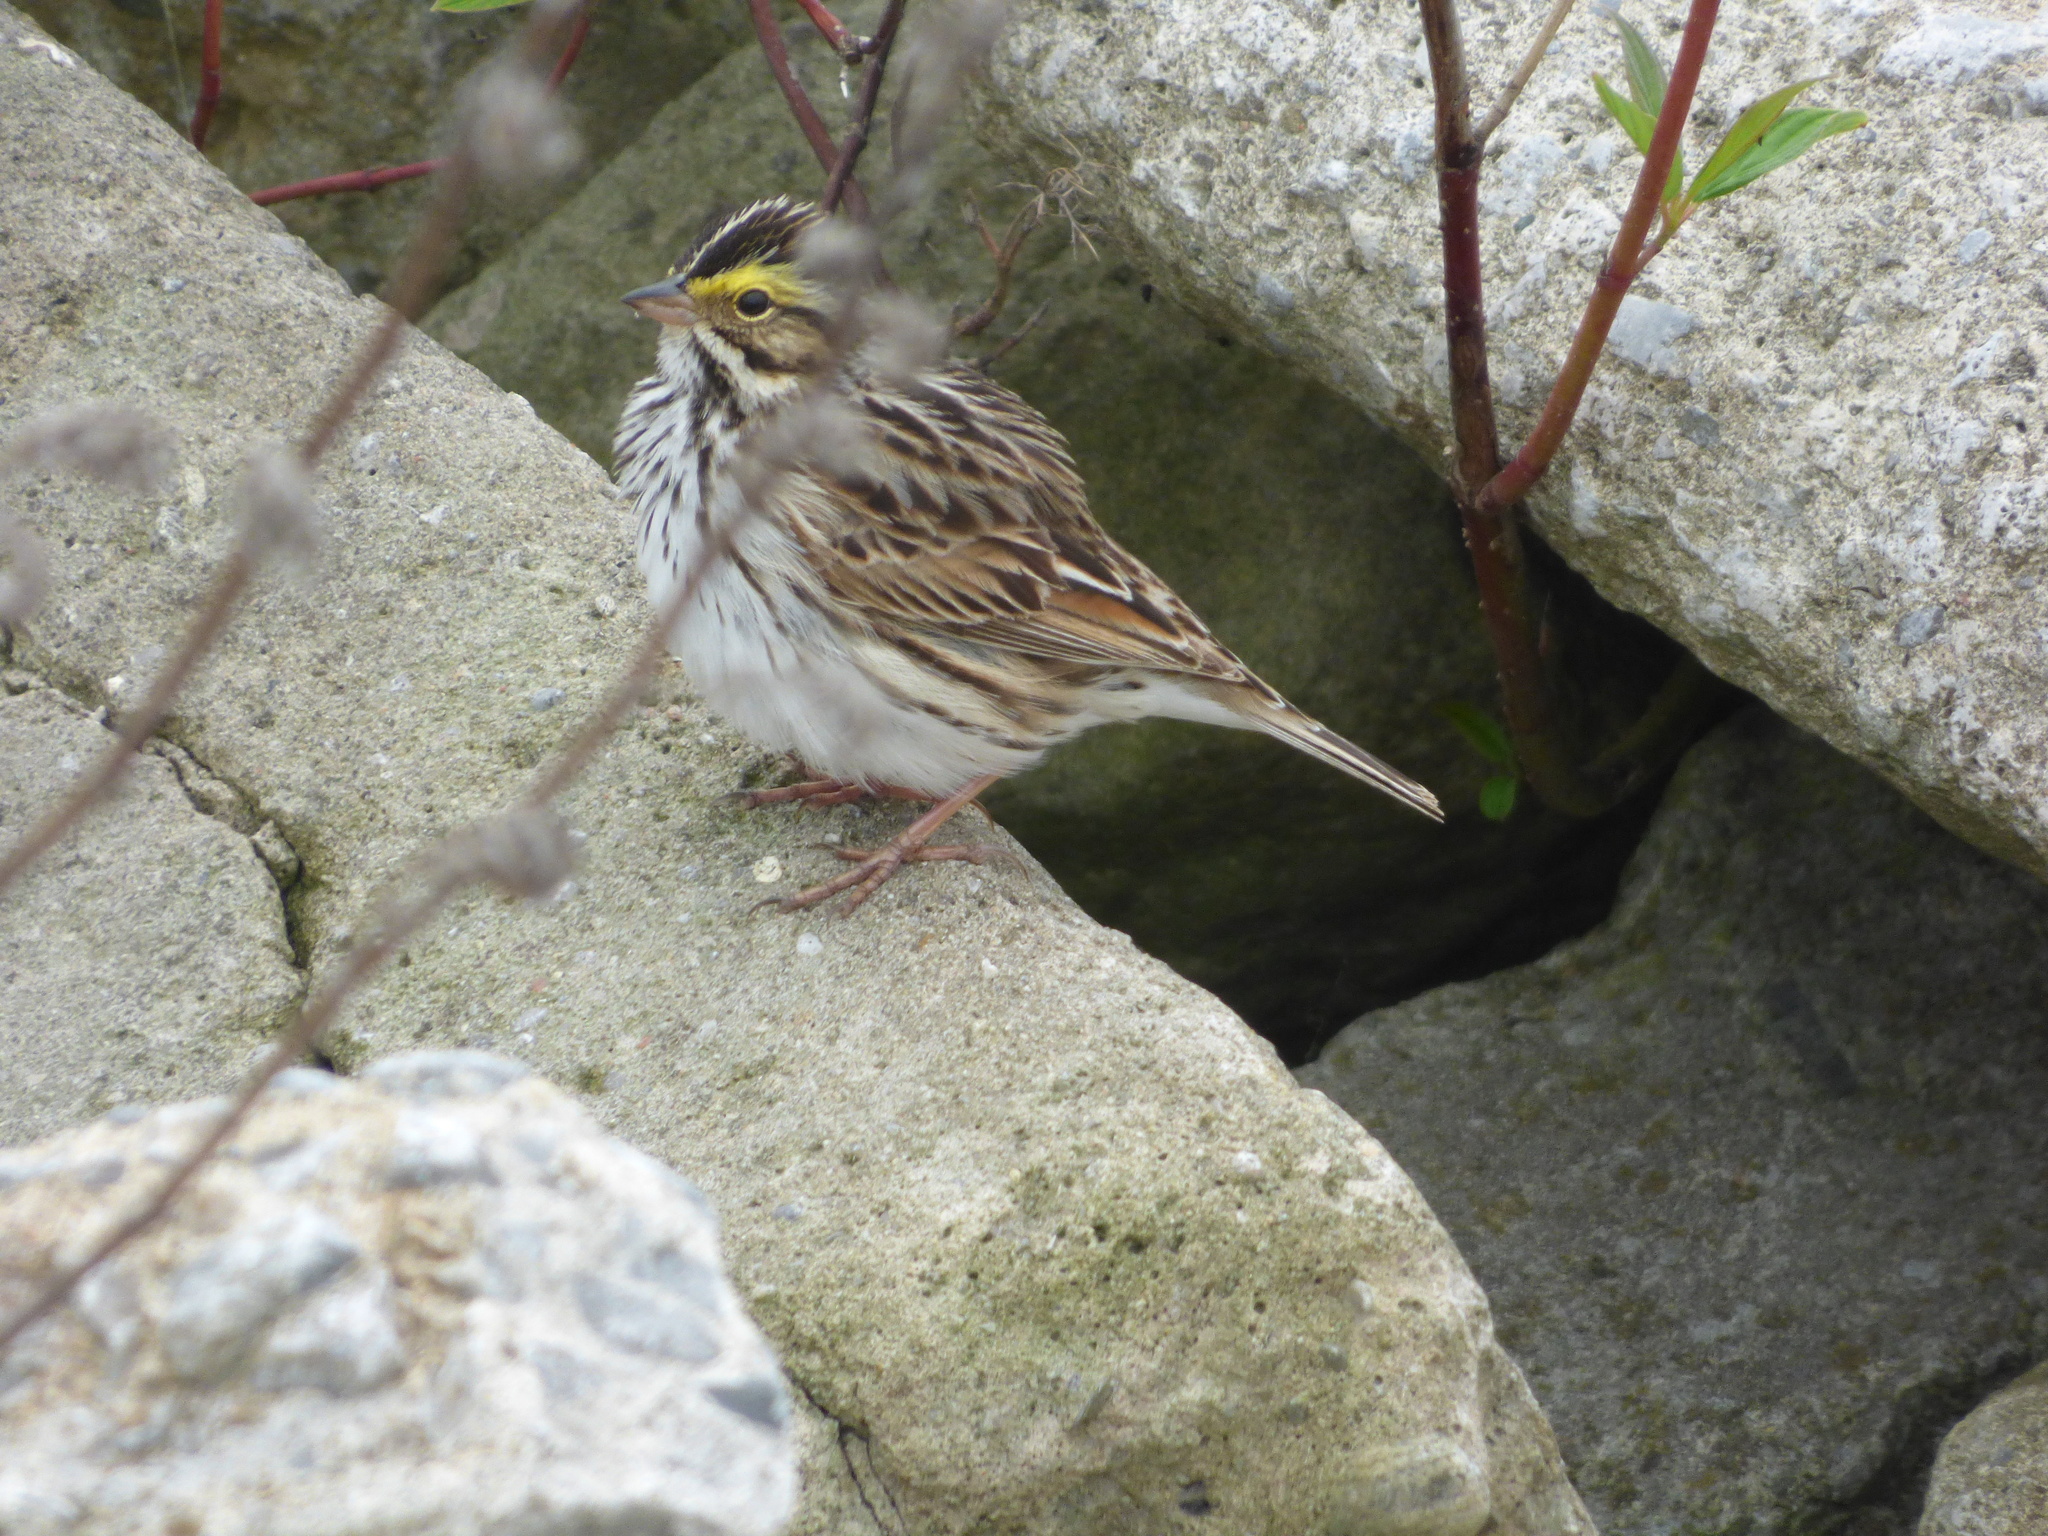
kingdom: Animalia
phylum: Chordata
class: Aves
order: Passeriformes
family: Passerellidae
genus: Passerculus
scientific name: Passerculus sandwichensis
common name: Savannah sparrow
